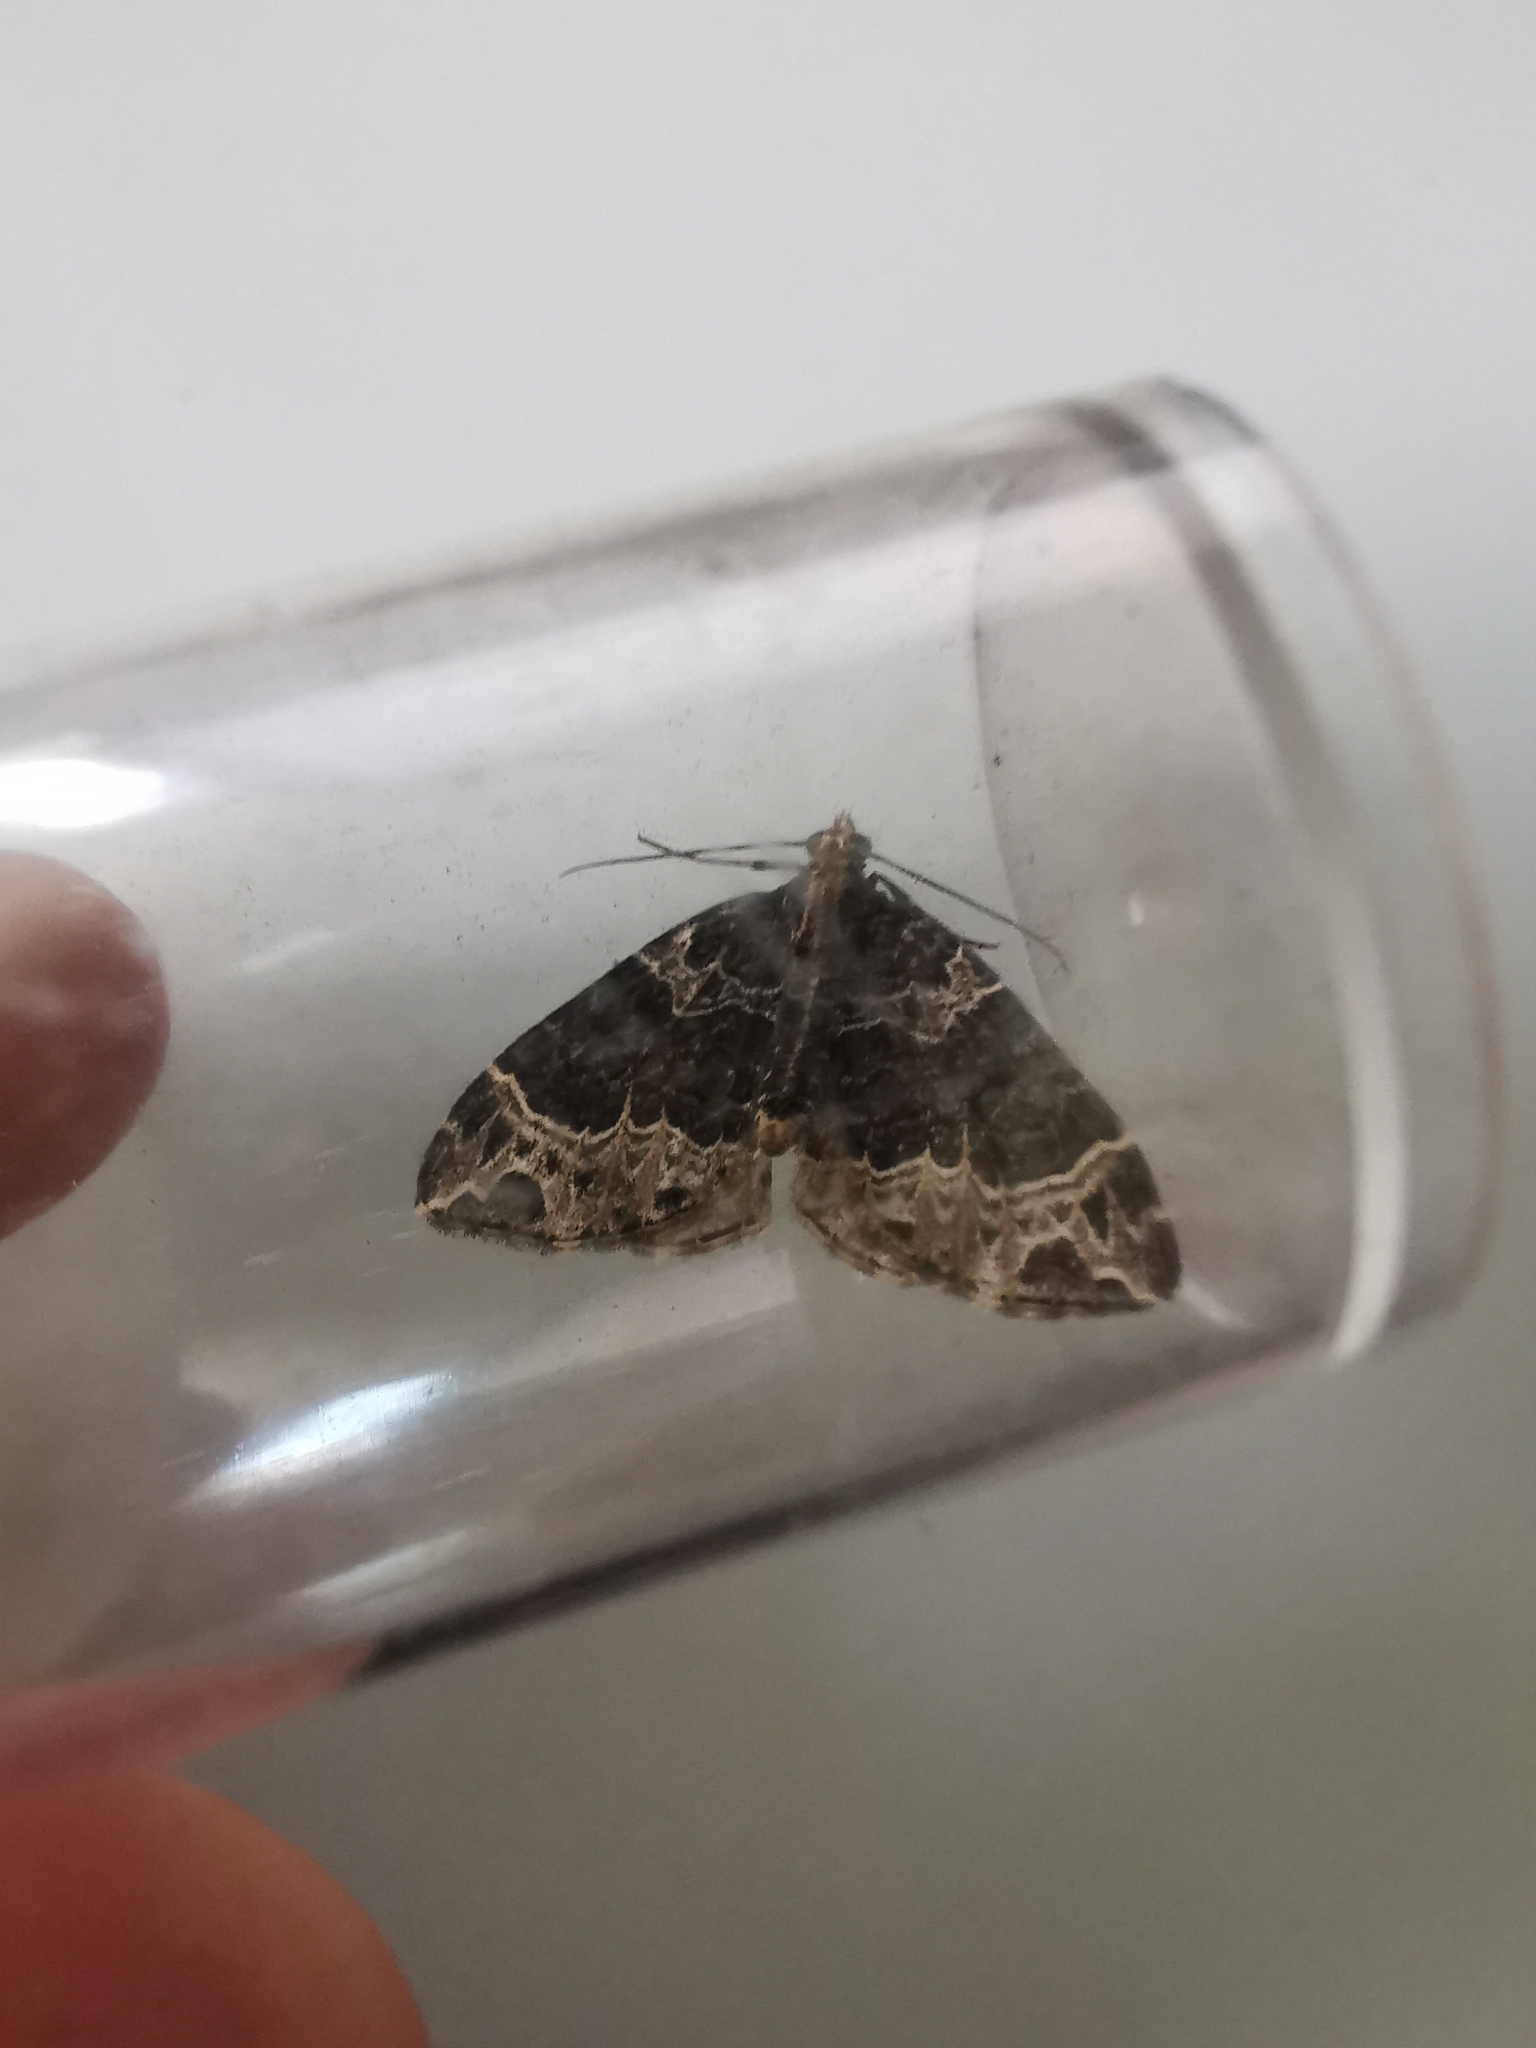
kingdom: Animalia
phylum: Arthropoda
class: Insecta
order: Lepidoptera
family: Geometridae
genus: Ecliptopera
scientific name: Ecliptopera silaceata
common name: Small phoenix
